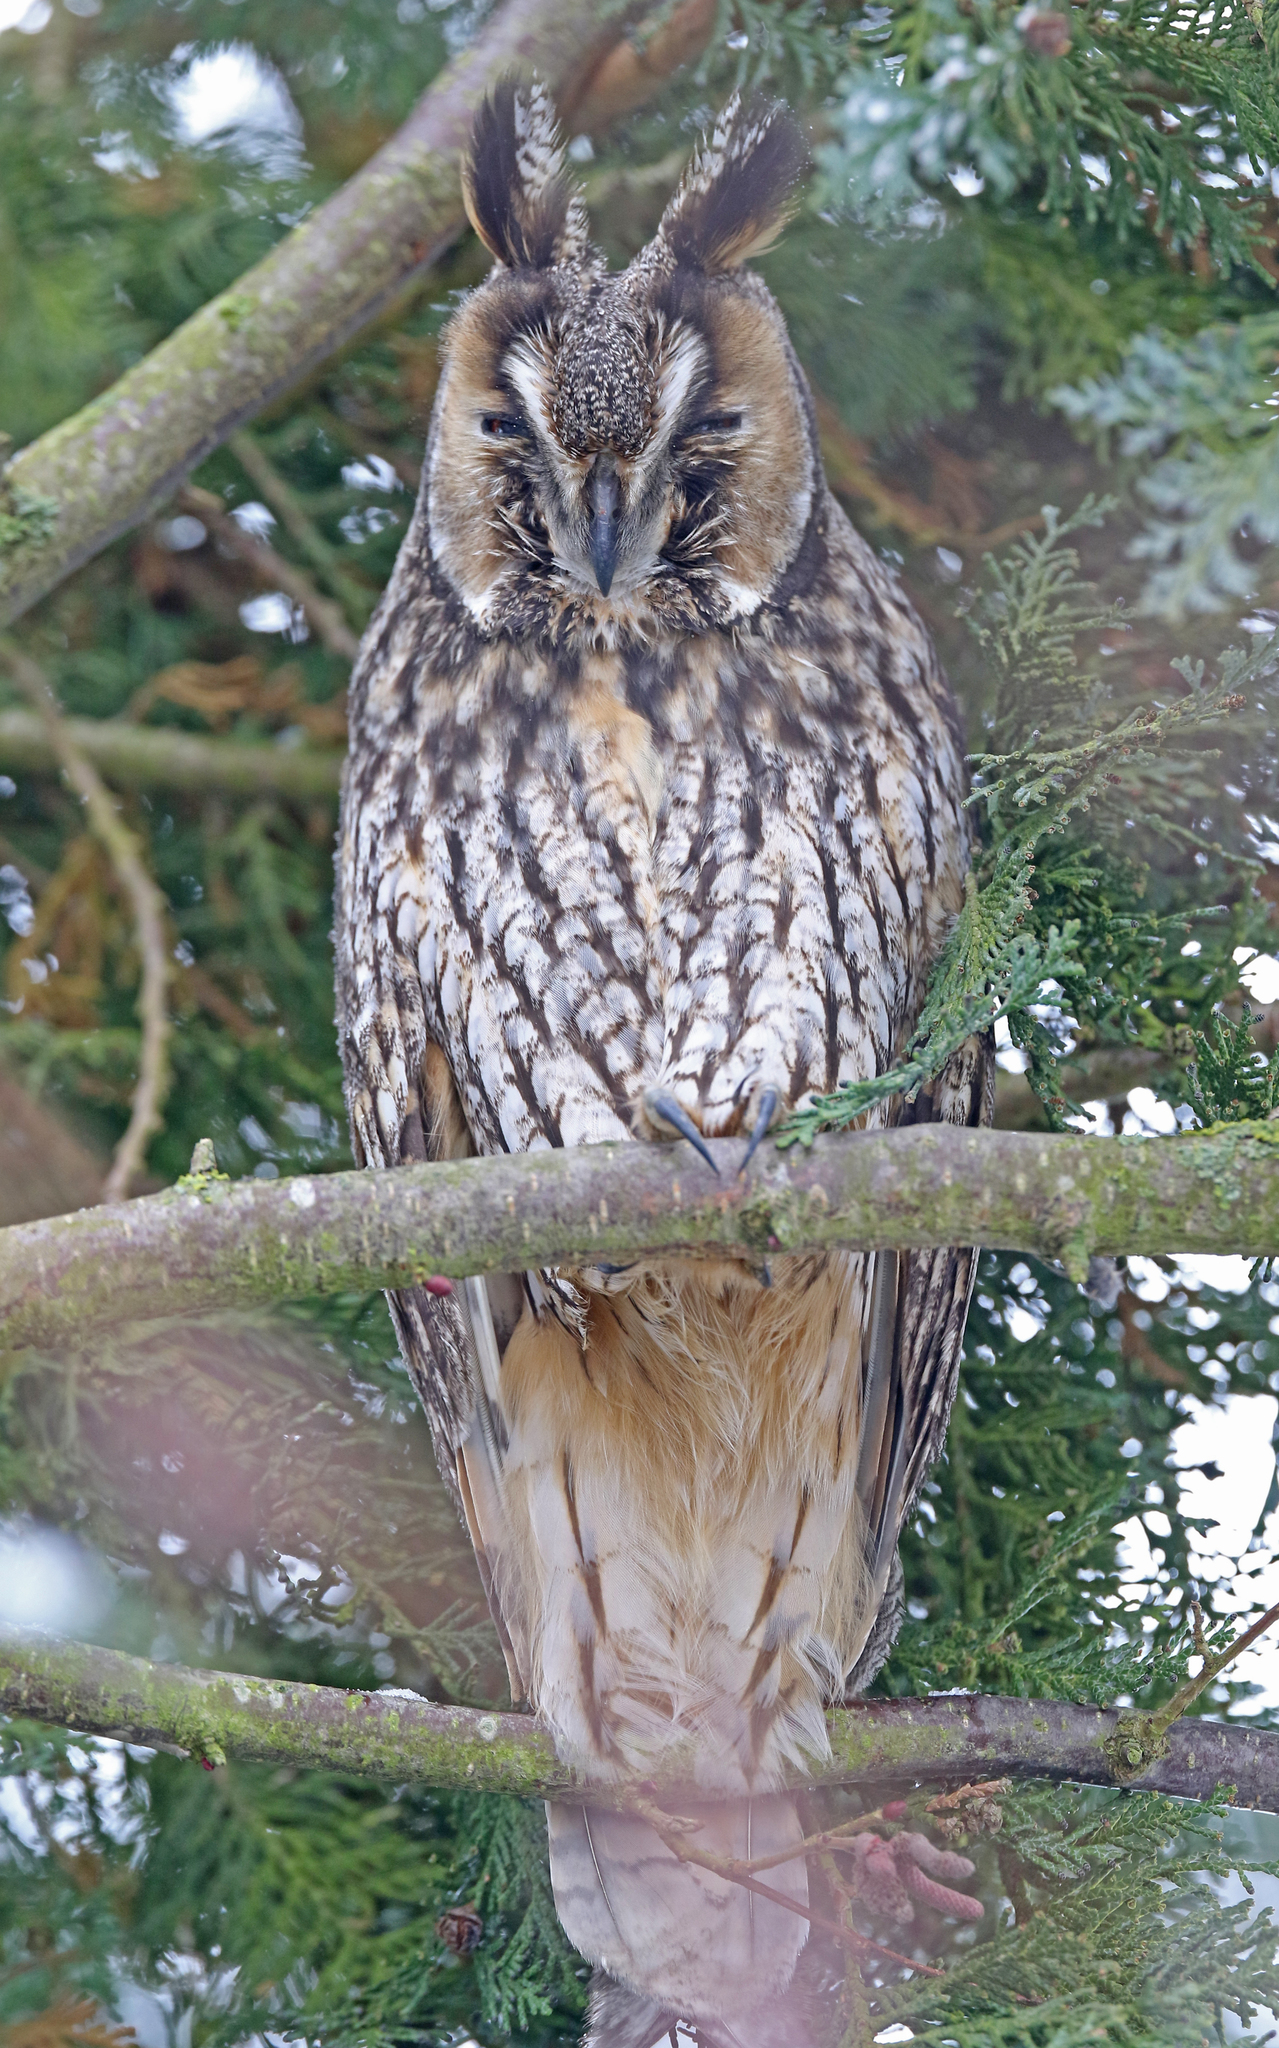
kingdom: Animalia
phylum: Chordata
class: Aves
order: Strigiformes
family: Strigidae
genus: Asio
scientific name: Asio otus
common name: Long-eared owl
